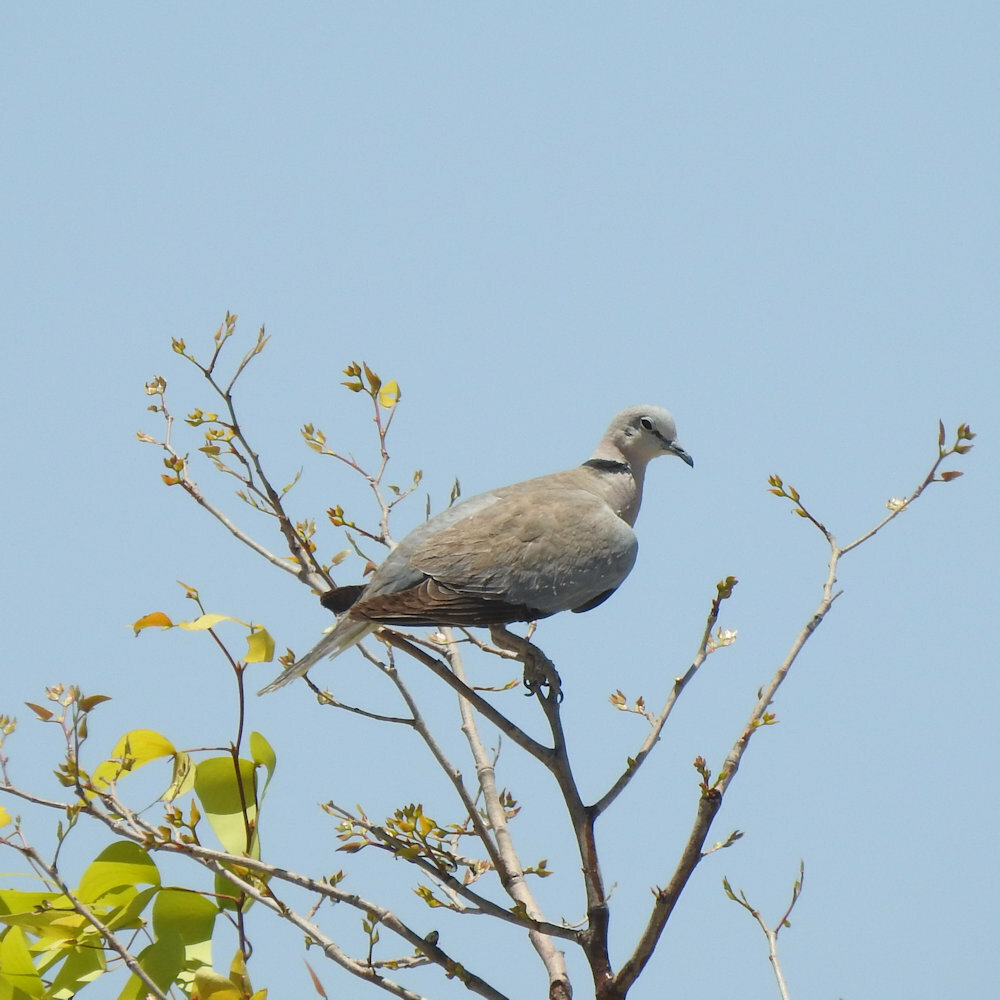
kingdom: Animalia
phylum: Chordata
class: Aves
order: Columbiformes
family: Columbidae
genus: Streptopelia
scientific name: Streptopelia capicola
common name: Ring-necked dove
